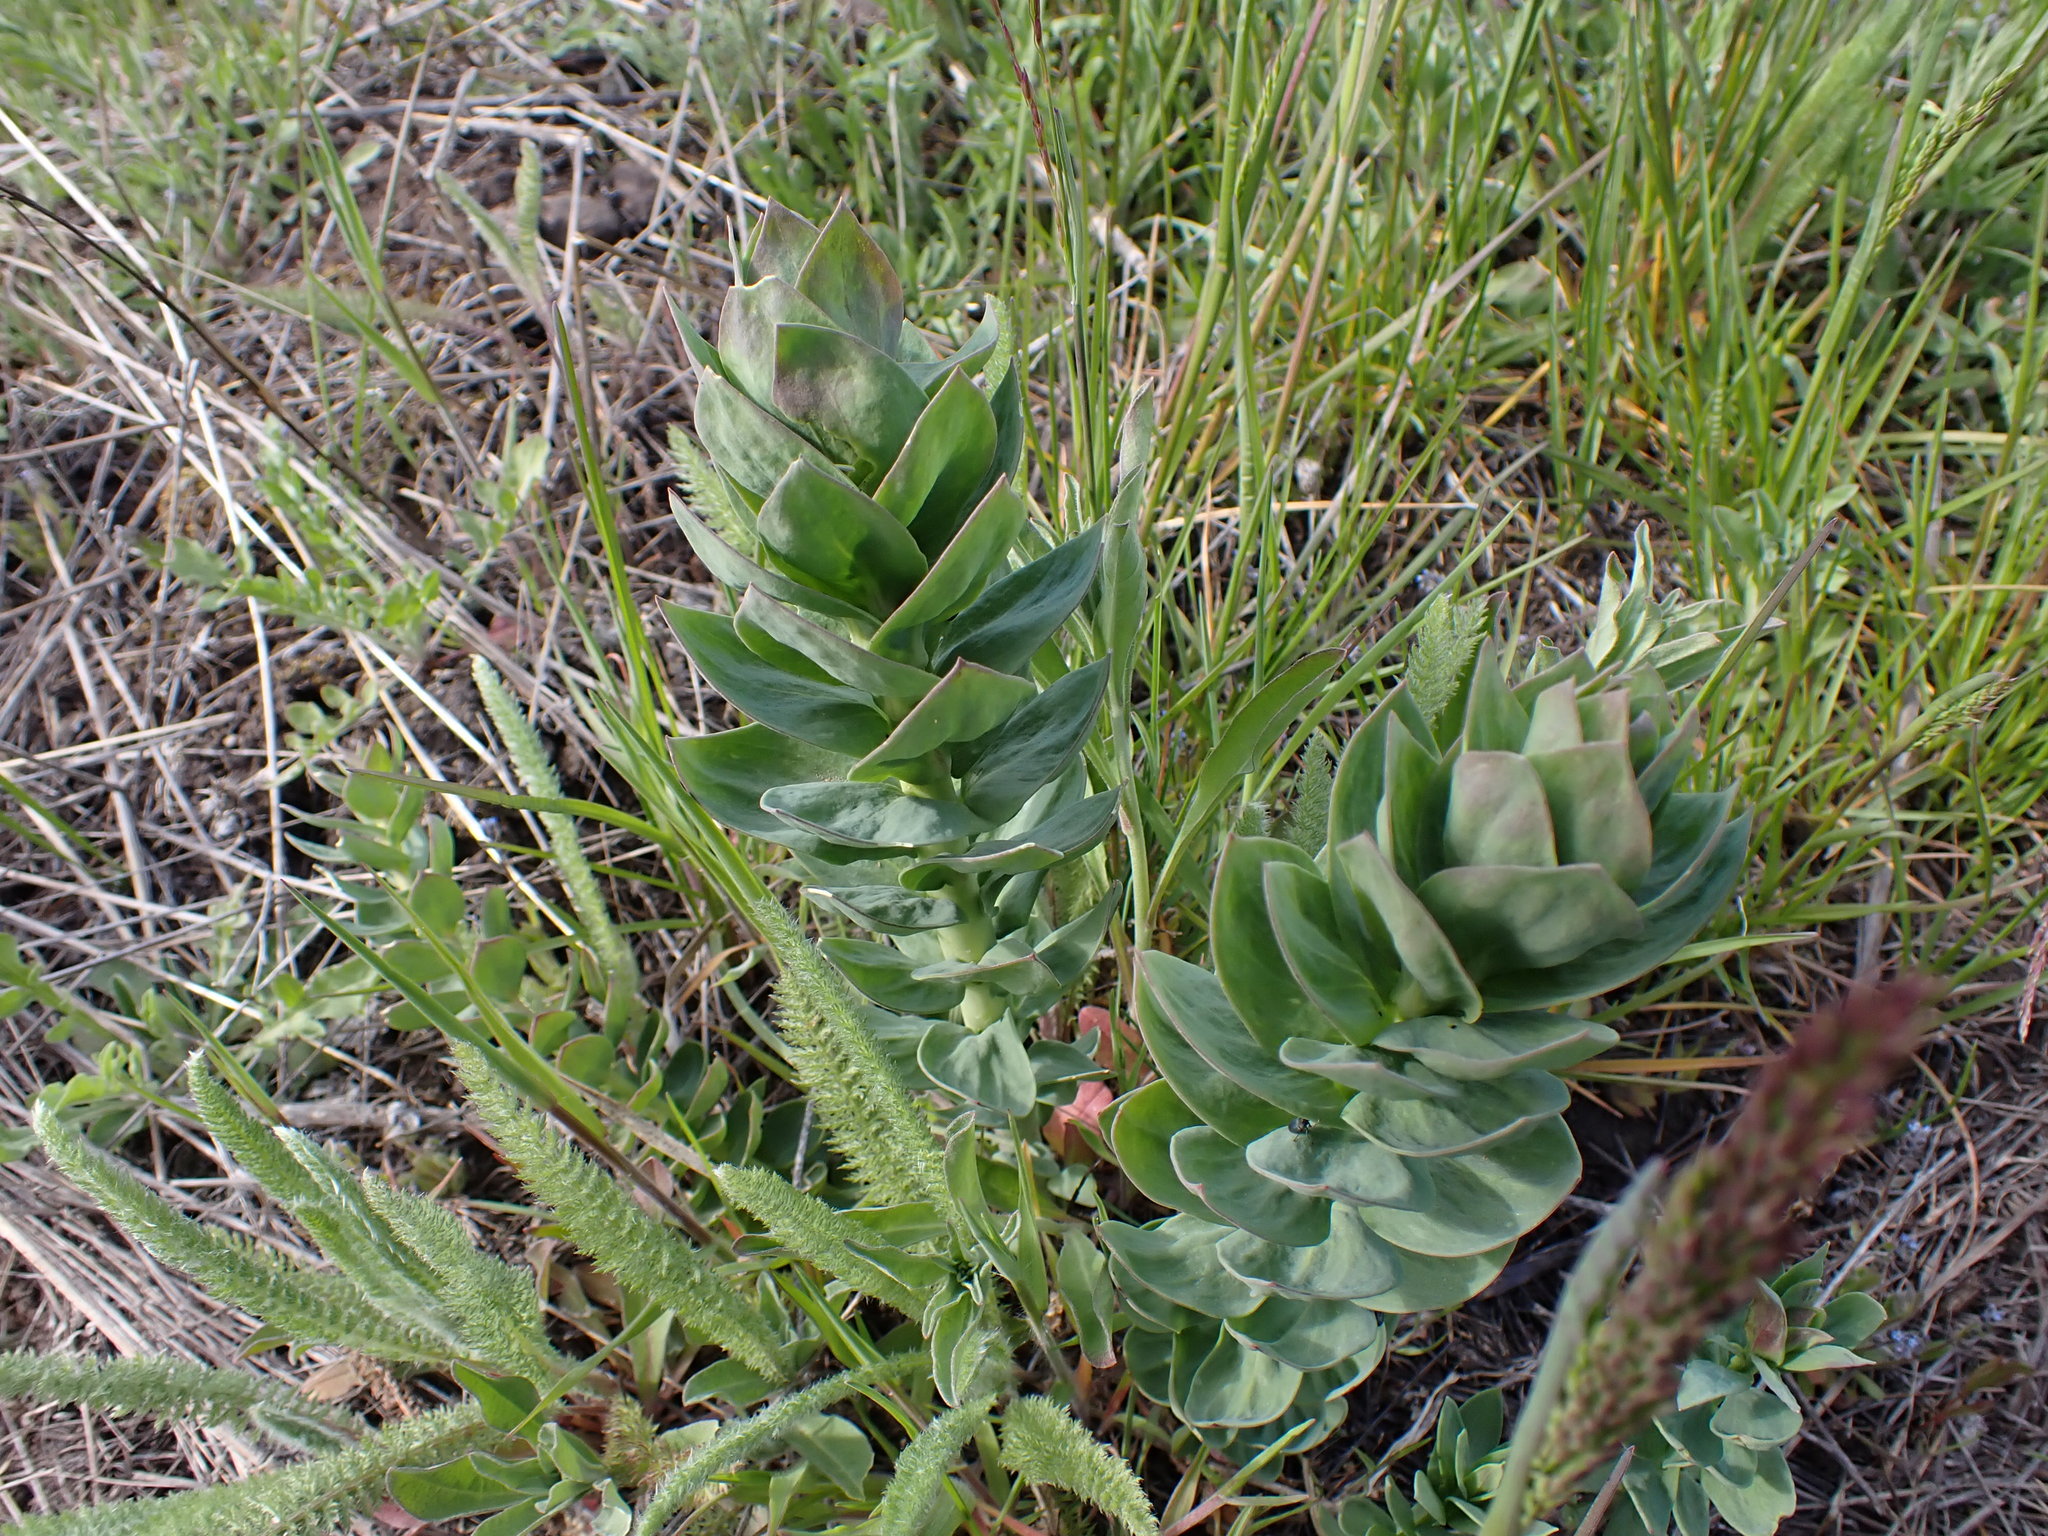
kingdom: Plantae
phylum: Tracheophyta
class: Magnoliopsida
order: Lamiales
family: Plantaginaceae
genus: Linaria
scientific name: Linaria dalmatica
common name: Dalmatian toadflax
